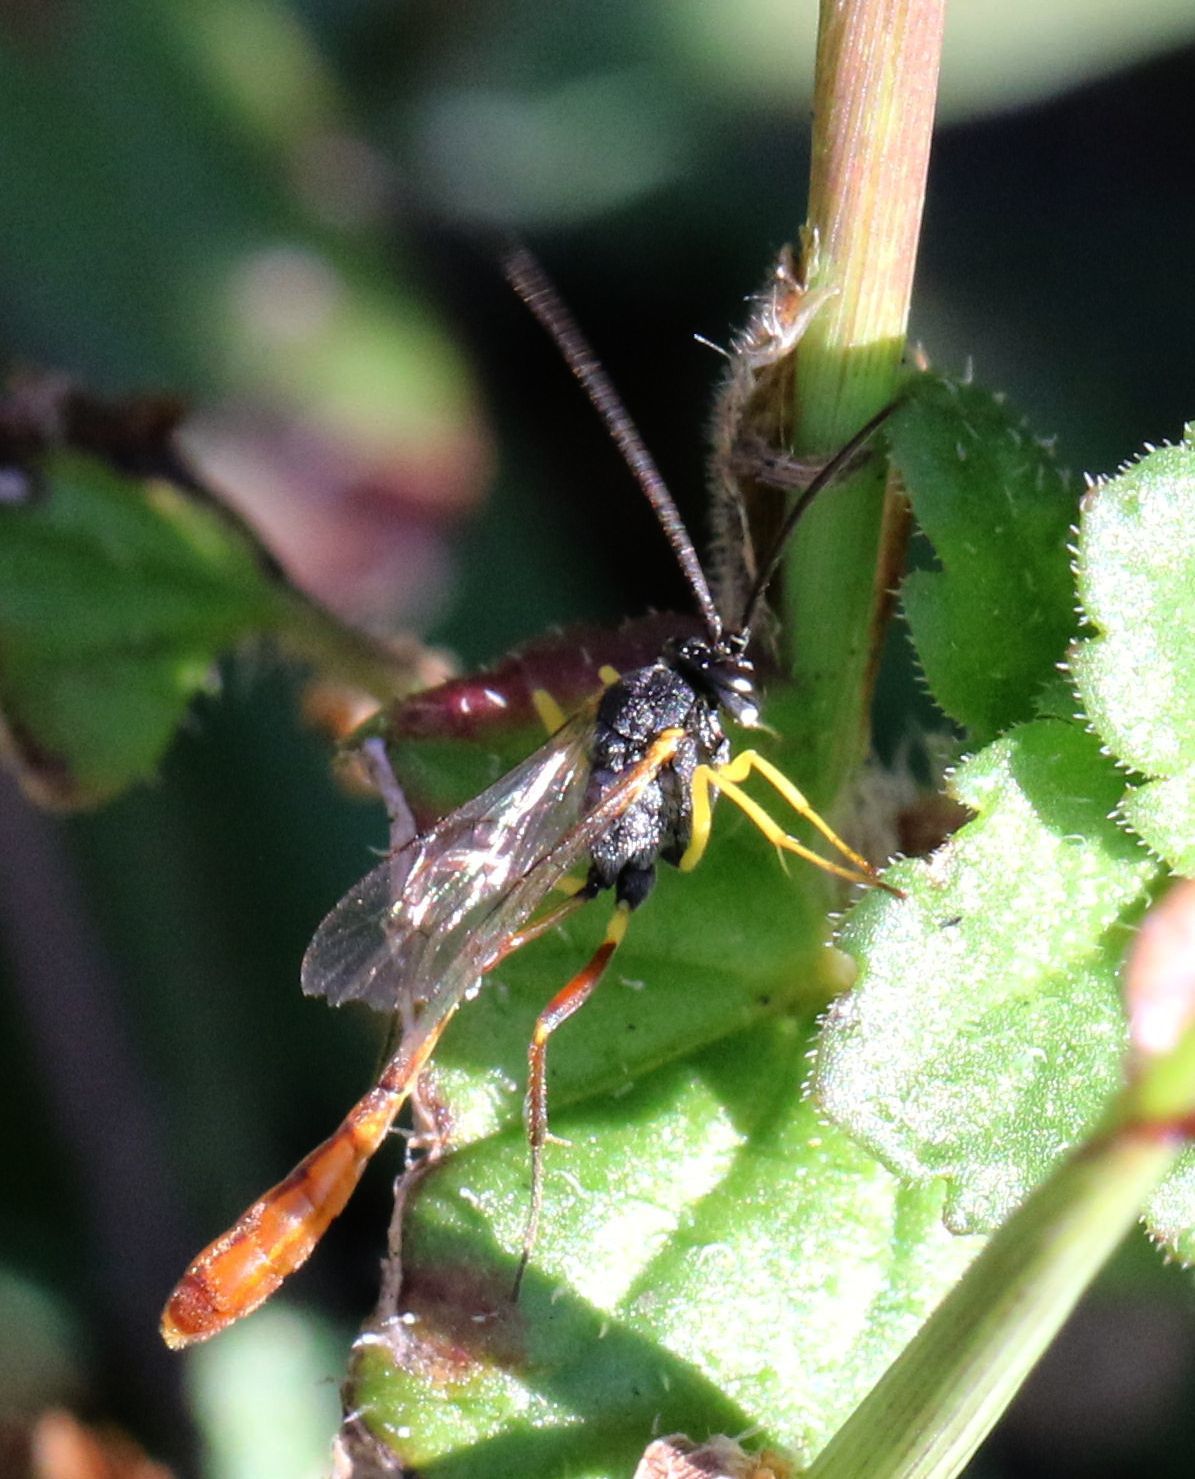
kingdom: Animalia
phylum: Arthropoda
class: Insecta
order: Hymenoptera
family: Ichneumonidae
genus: Charops
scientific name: Charops spinitarsis
